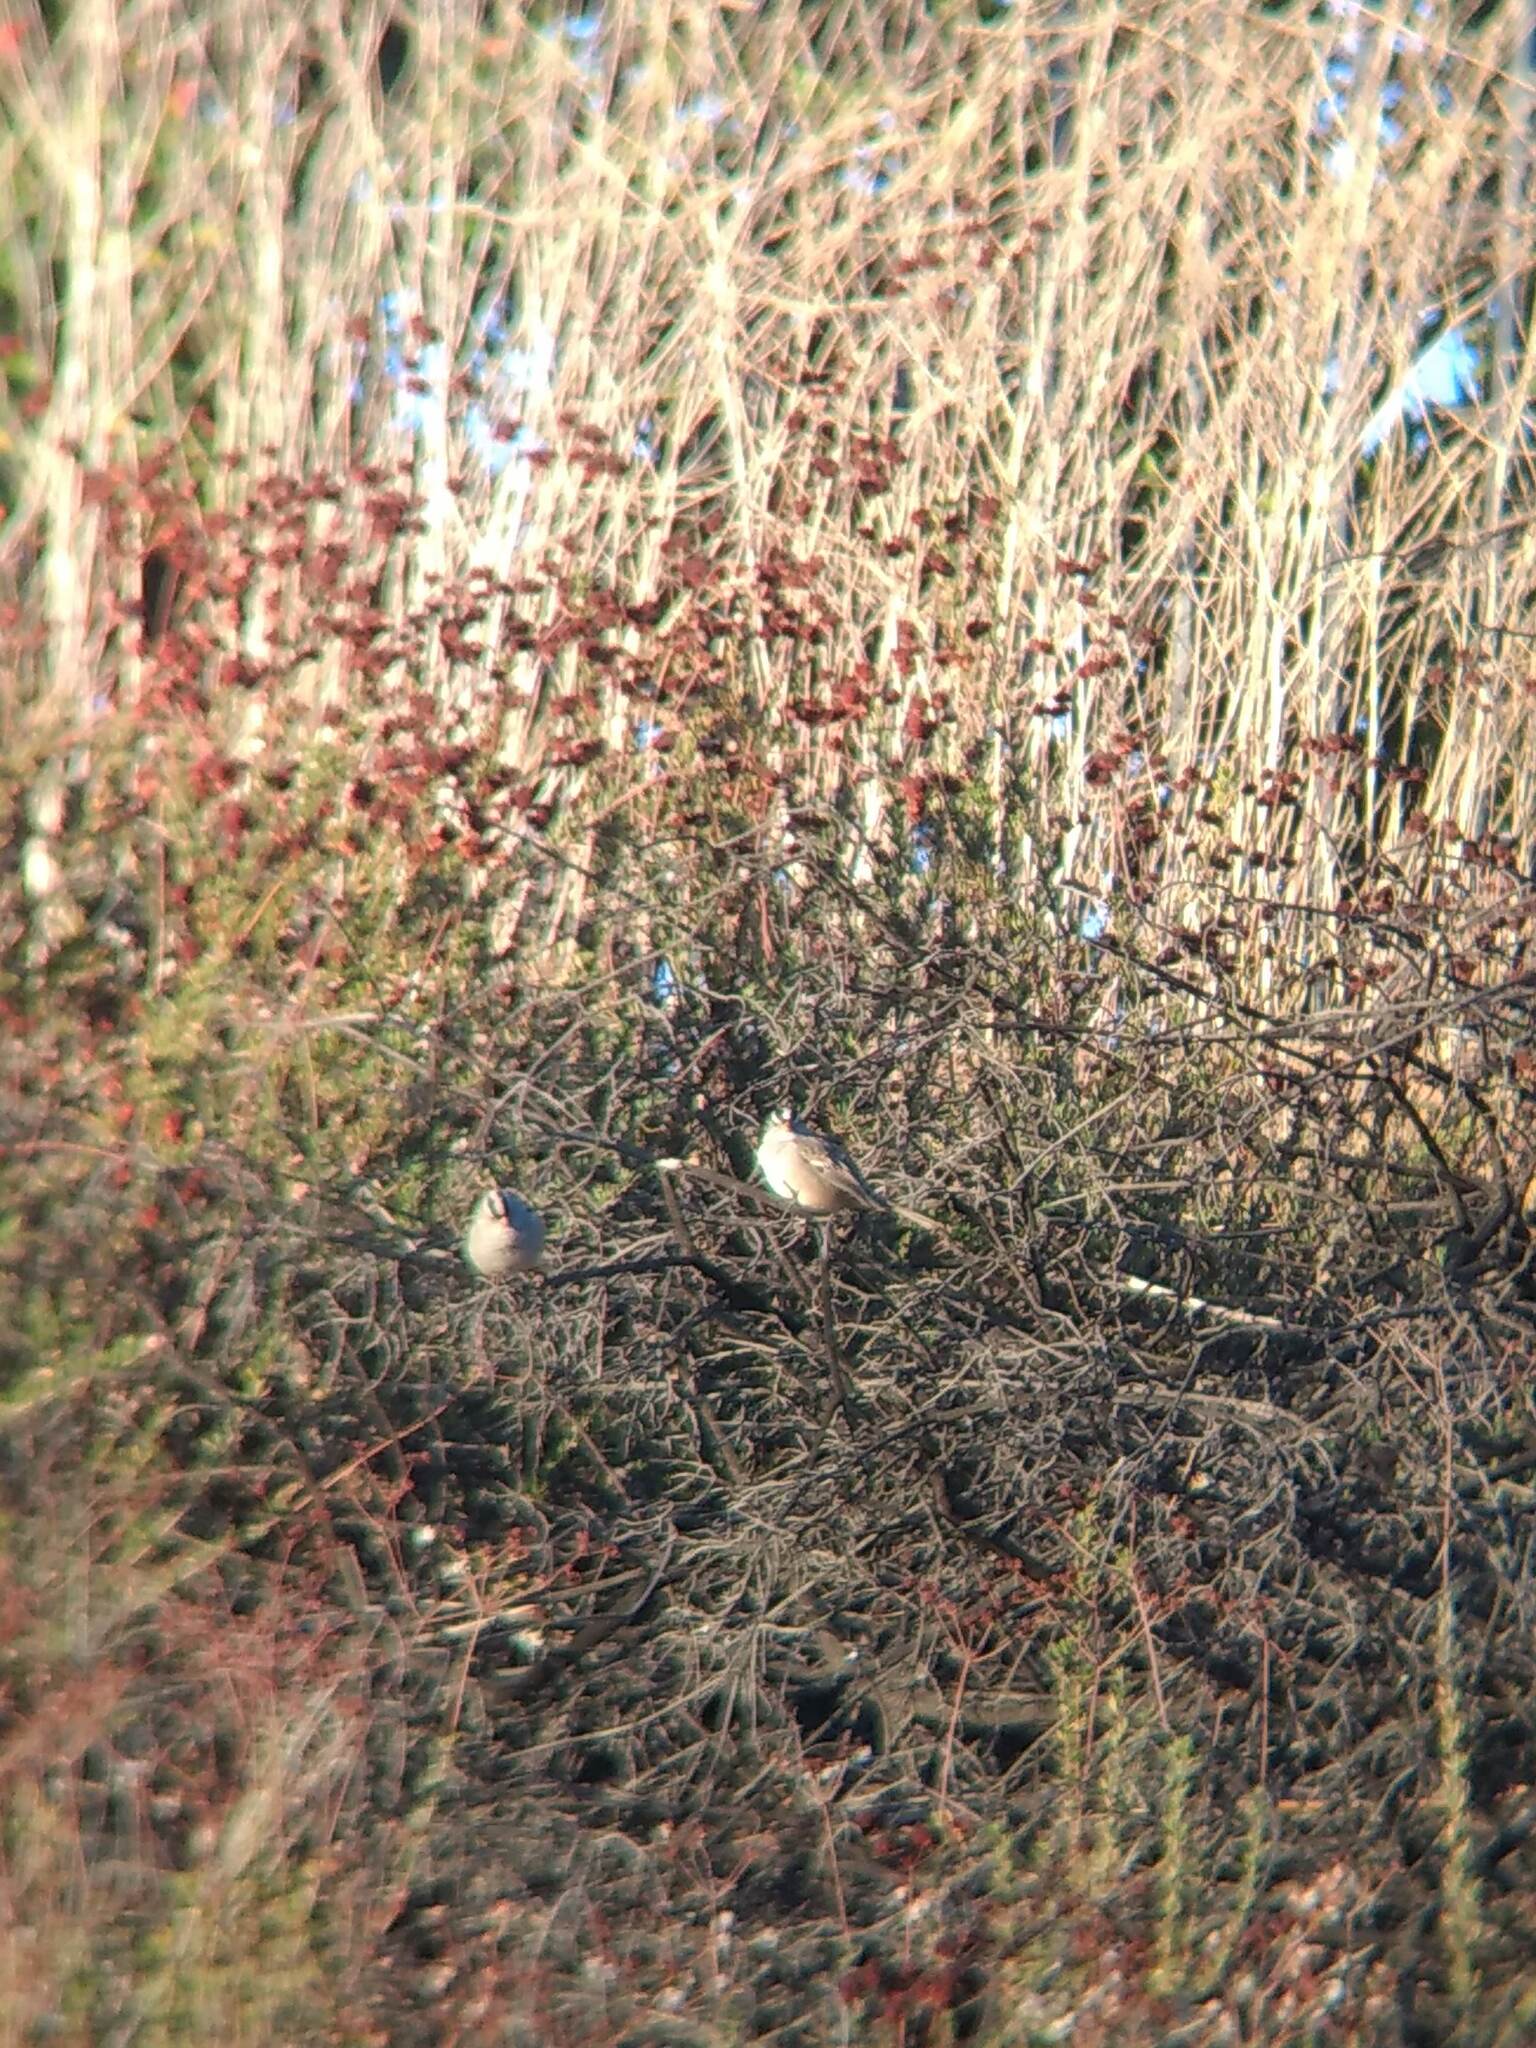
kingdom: Animalia
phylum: Chordata
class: Aves
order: Passeriformes
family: Passerellidae
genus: Zonotrichia
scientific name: Zonotrichia leucophrys
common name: White-crowned sparrow
